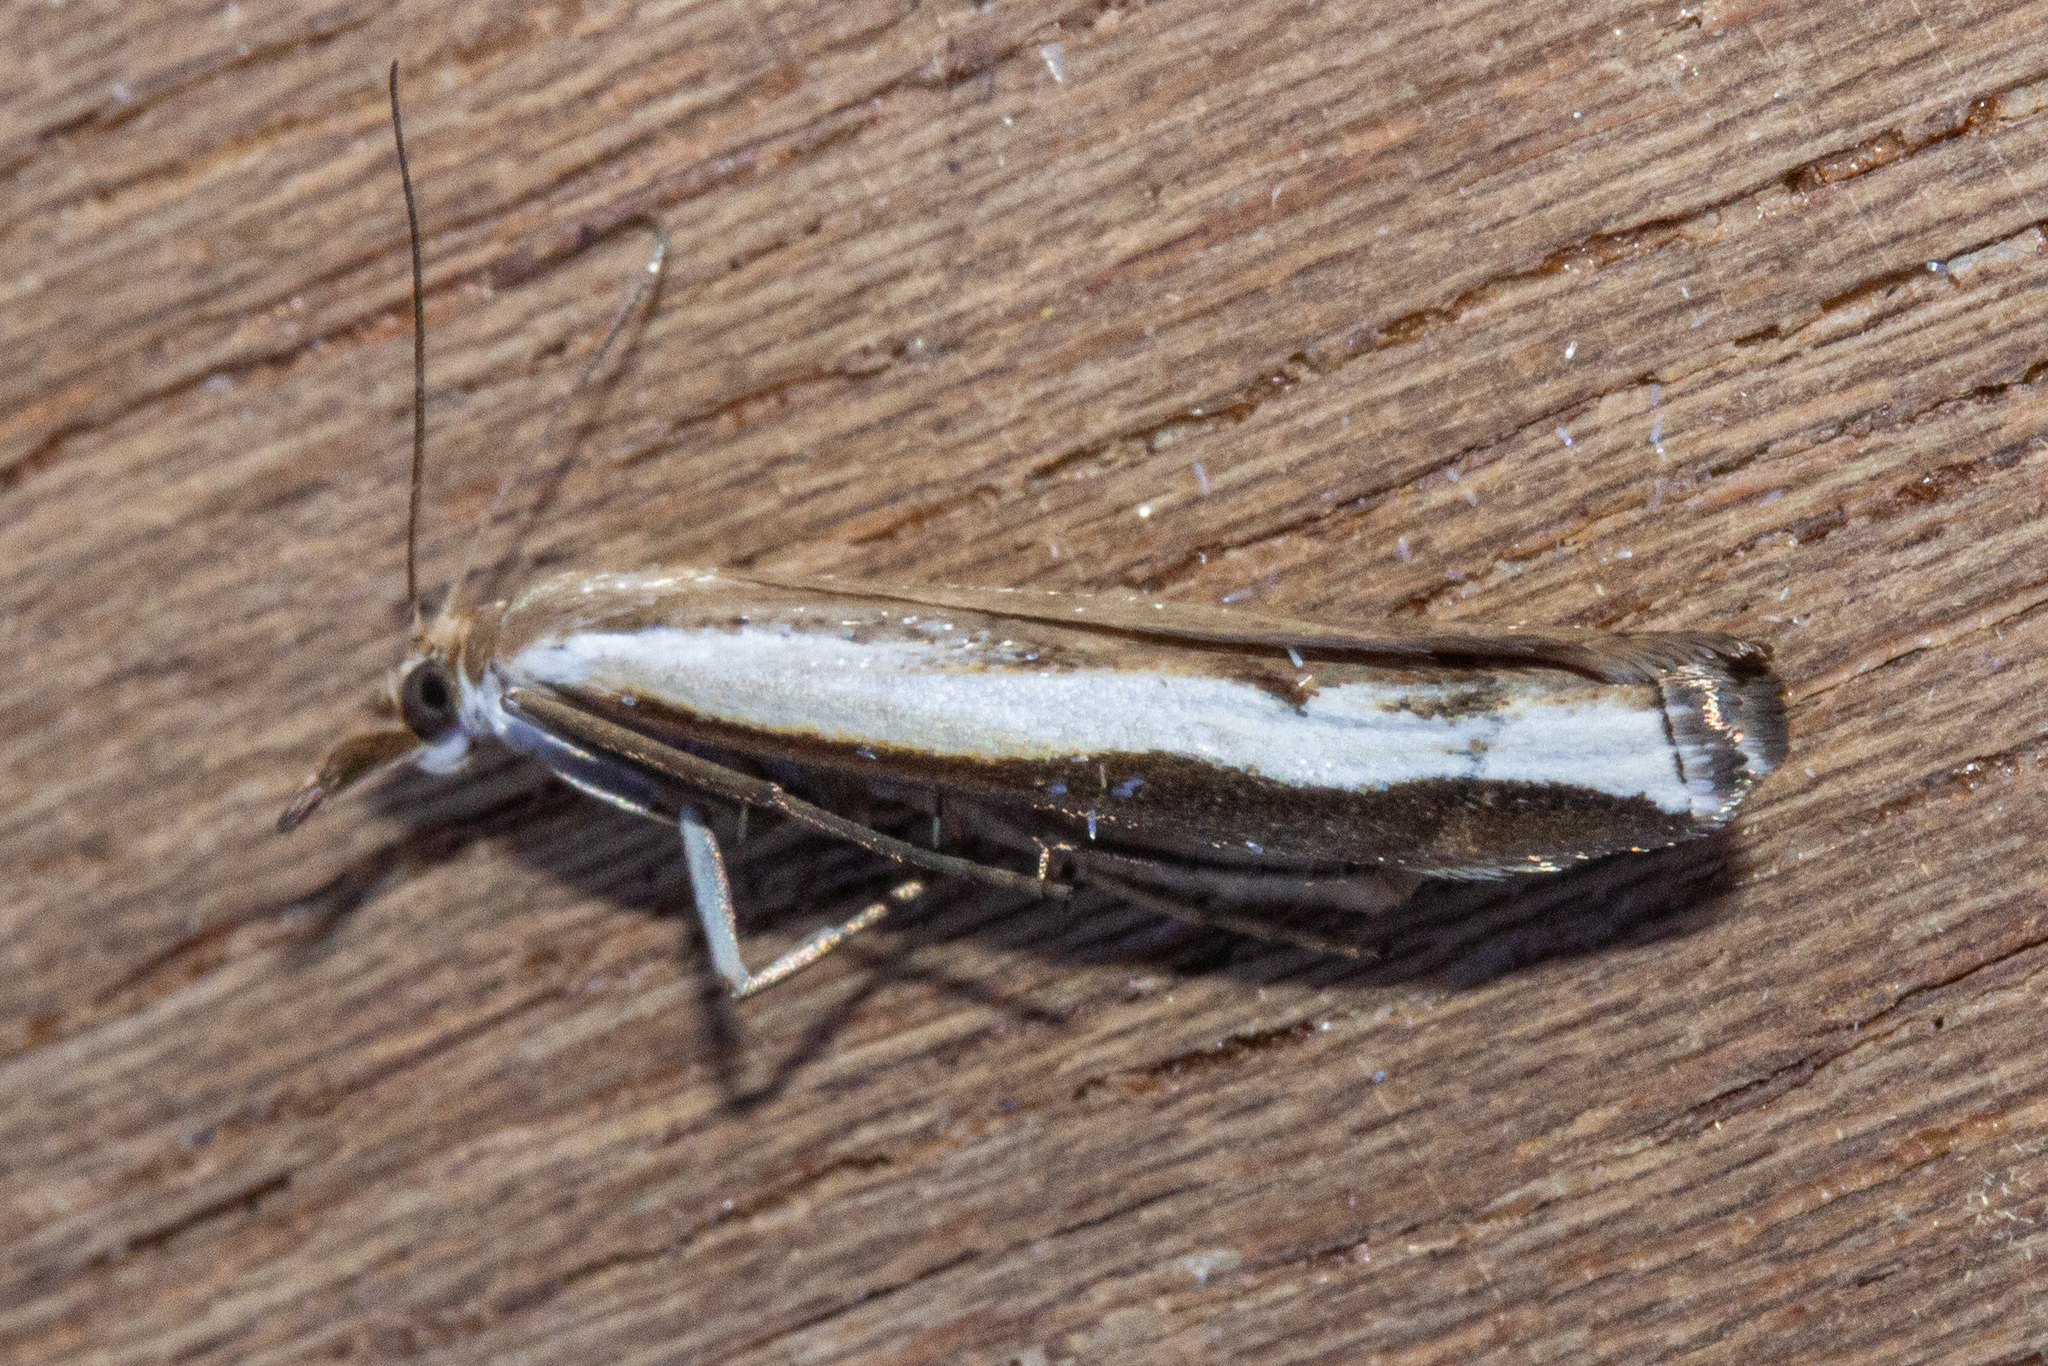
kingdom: Animalia
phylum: Arthropoda
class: Insecta
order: Lepidoptera
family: Crambidae
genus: Orocrambus
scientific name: Orocrambus flexuosellus
